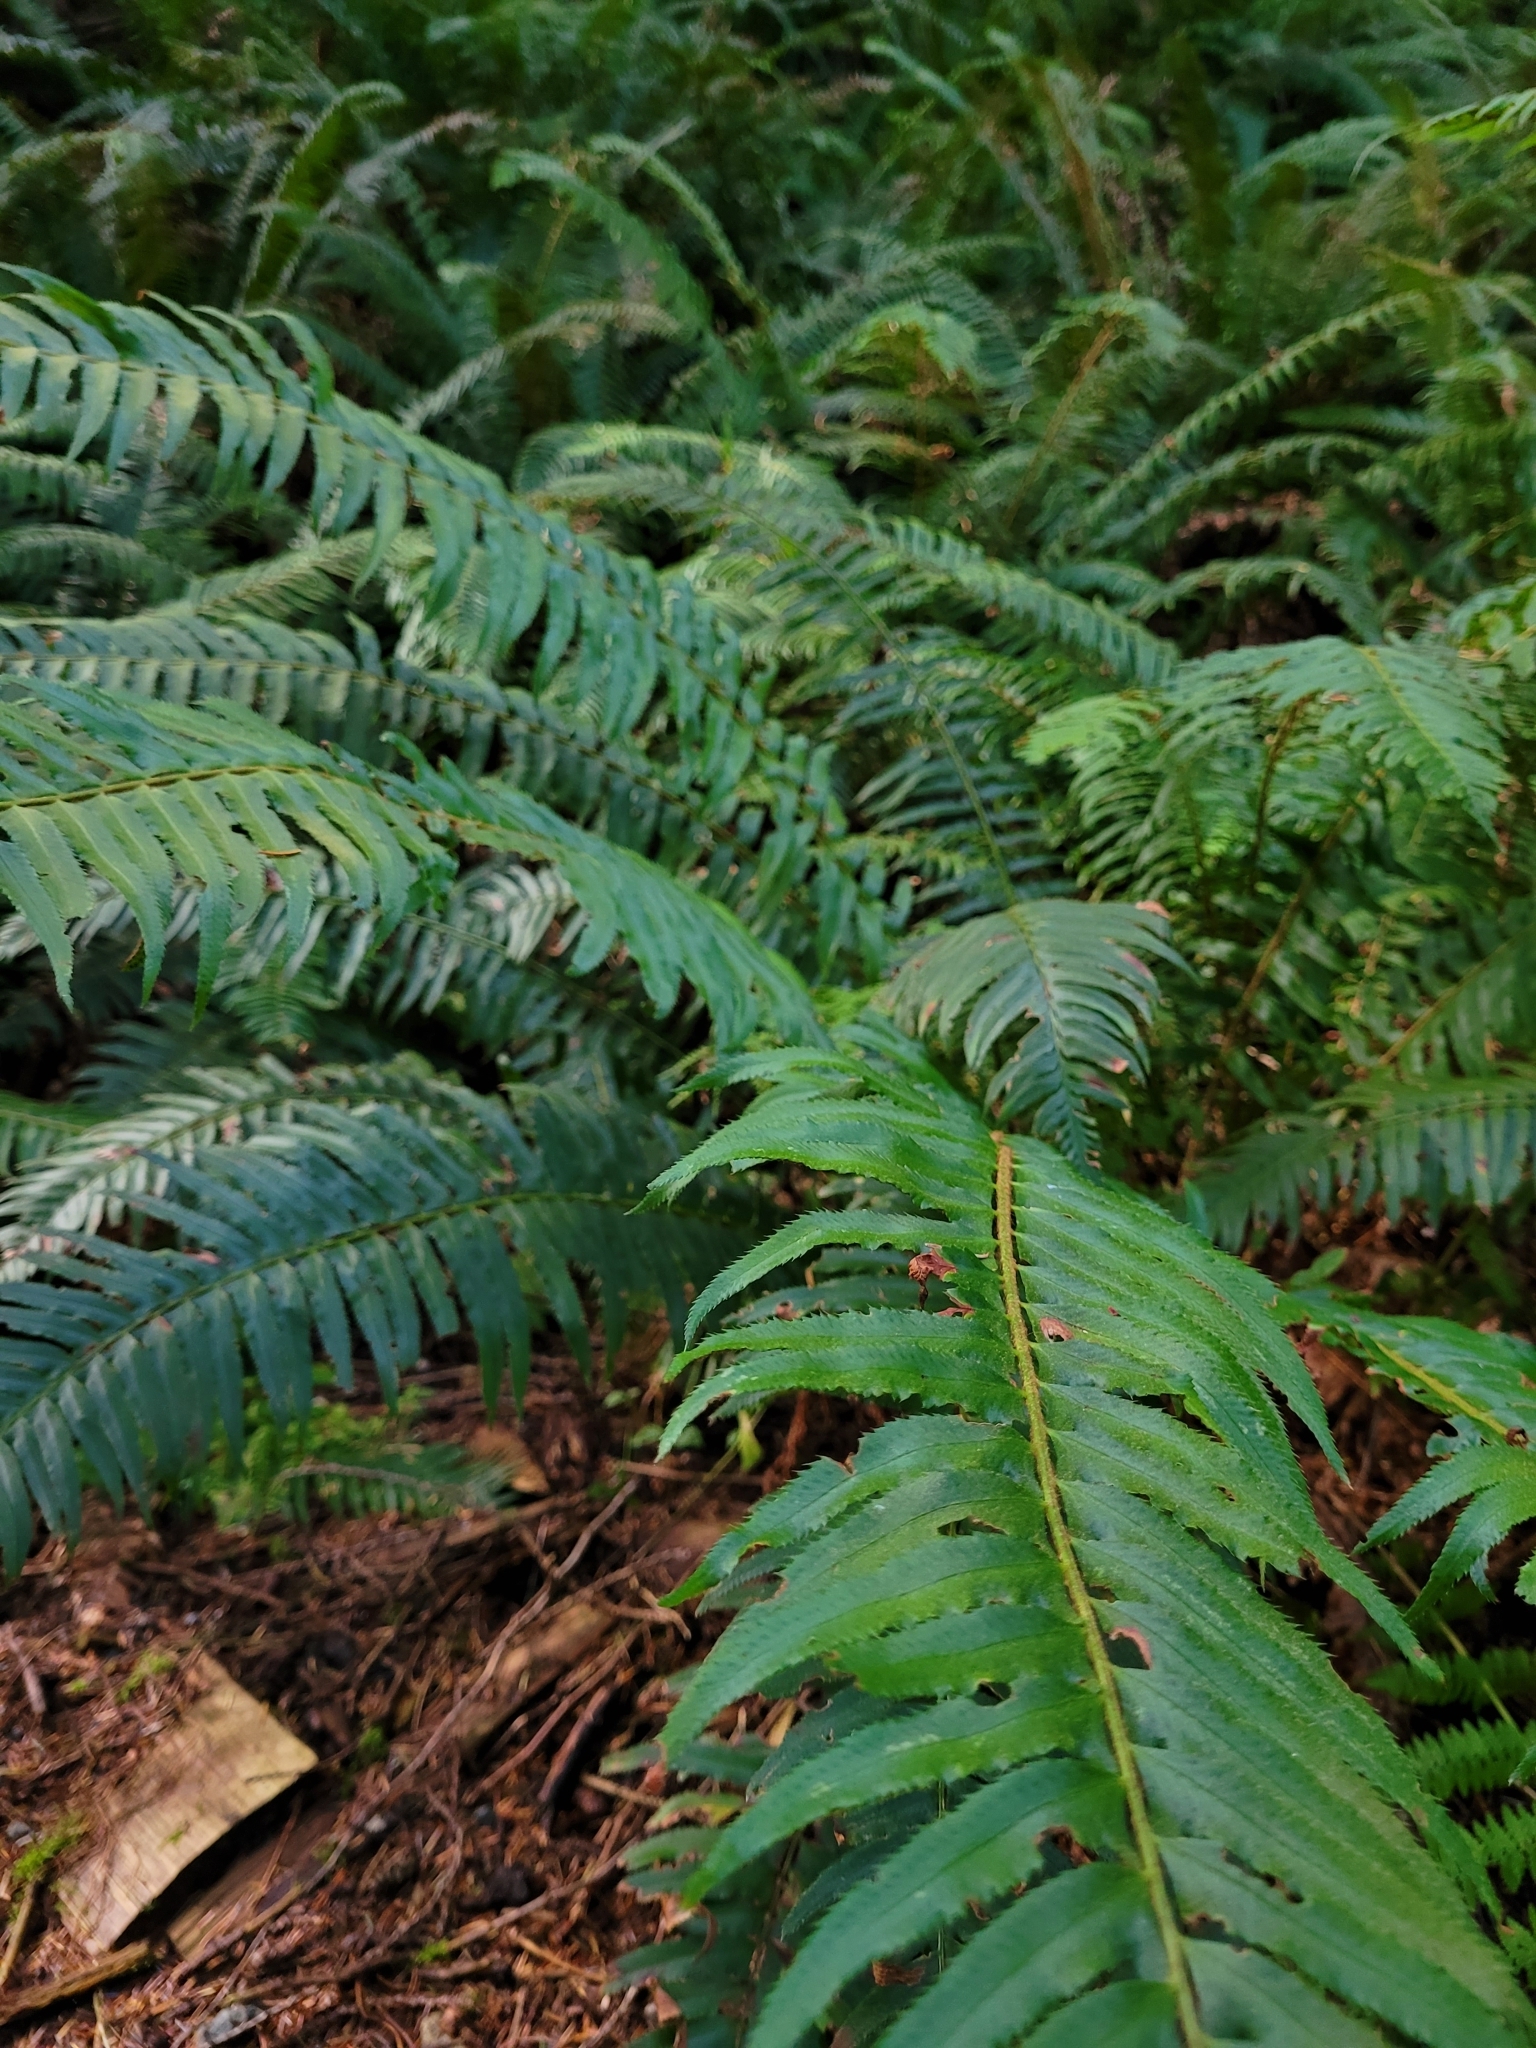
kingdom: Plantae
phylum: Tracheophyta
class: Polypodiopsida
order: Polypodiales
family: Dryopteridaceae
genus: Polystichum
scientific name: Polystichum munitum
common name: Western sword-fern
